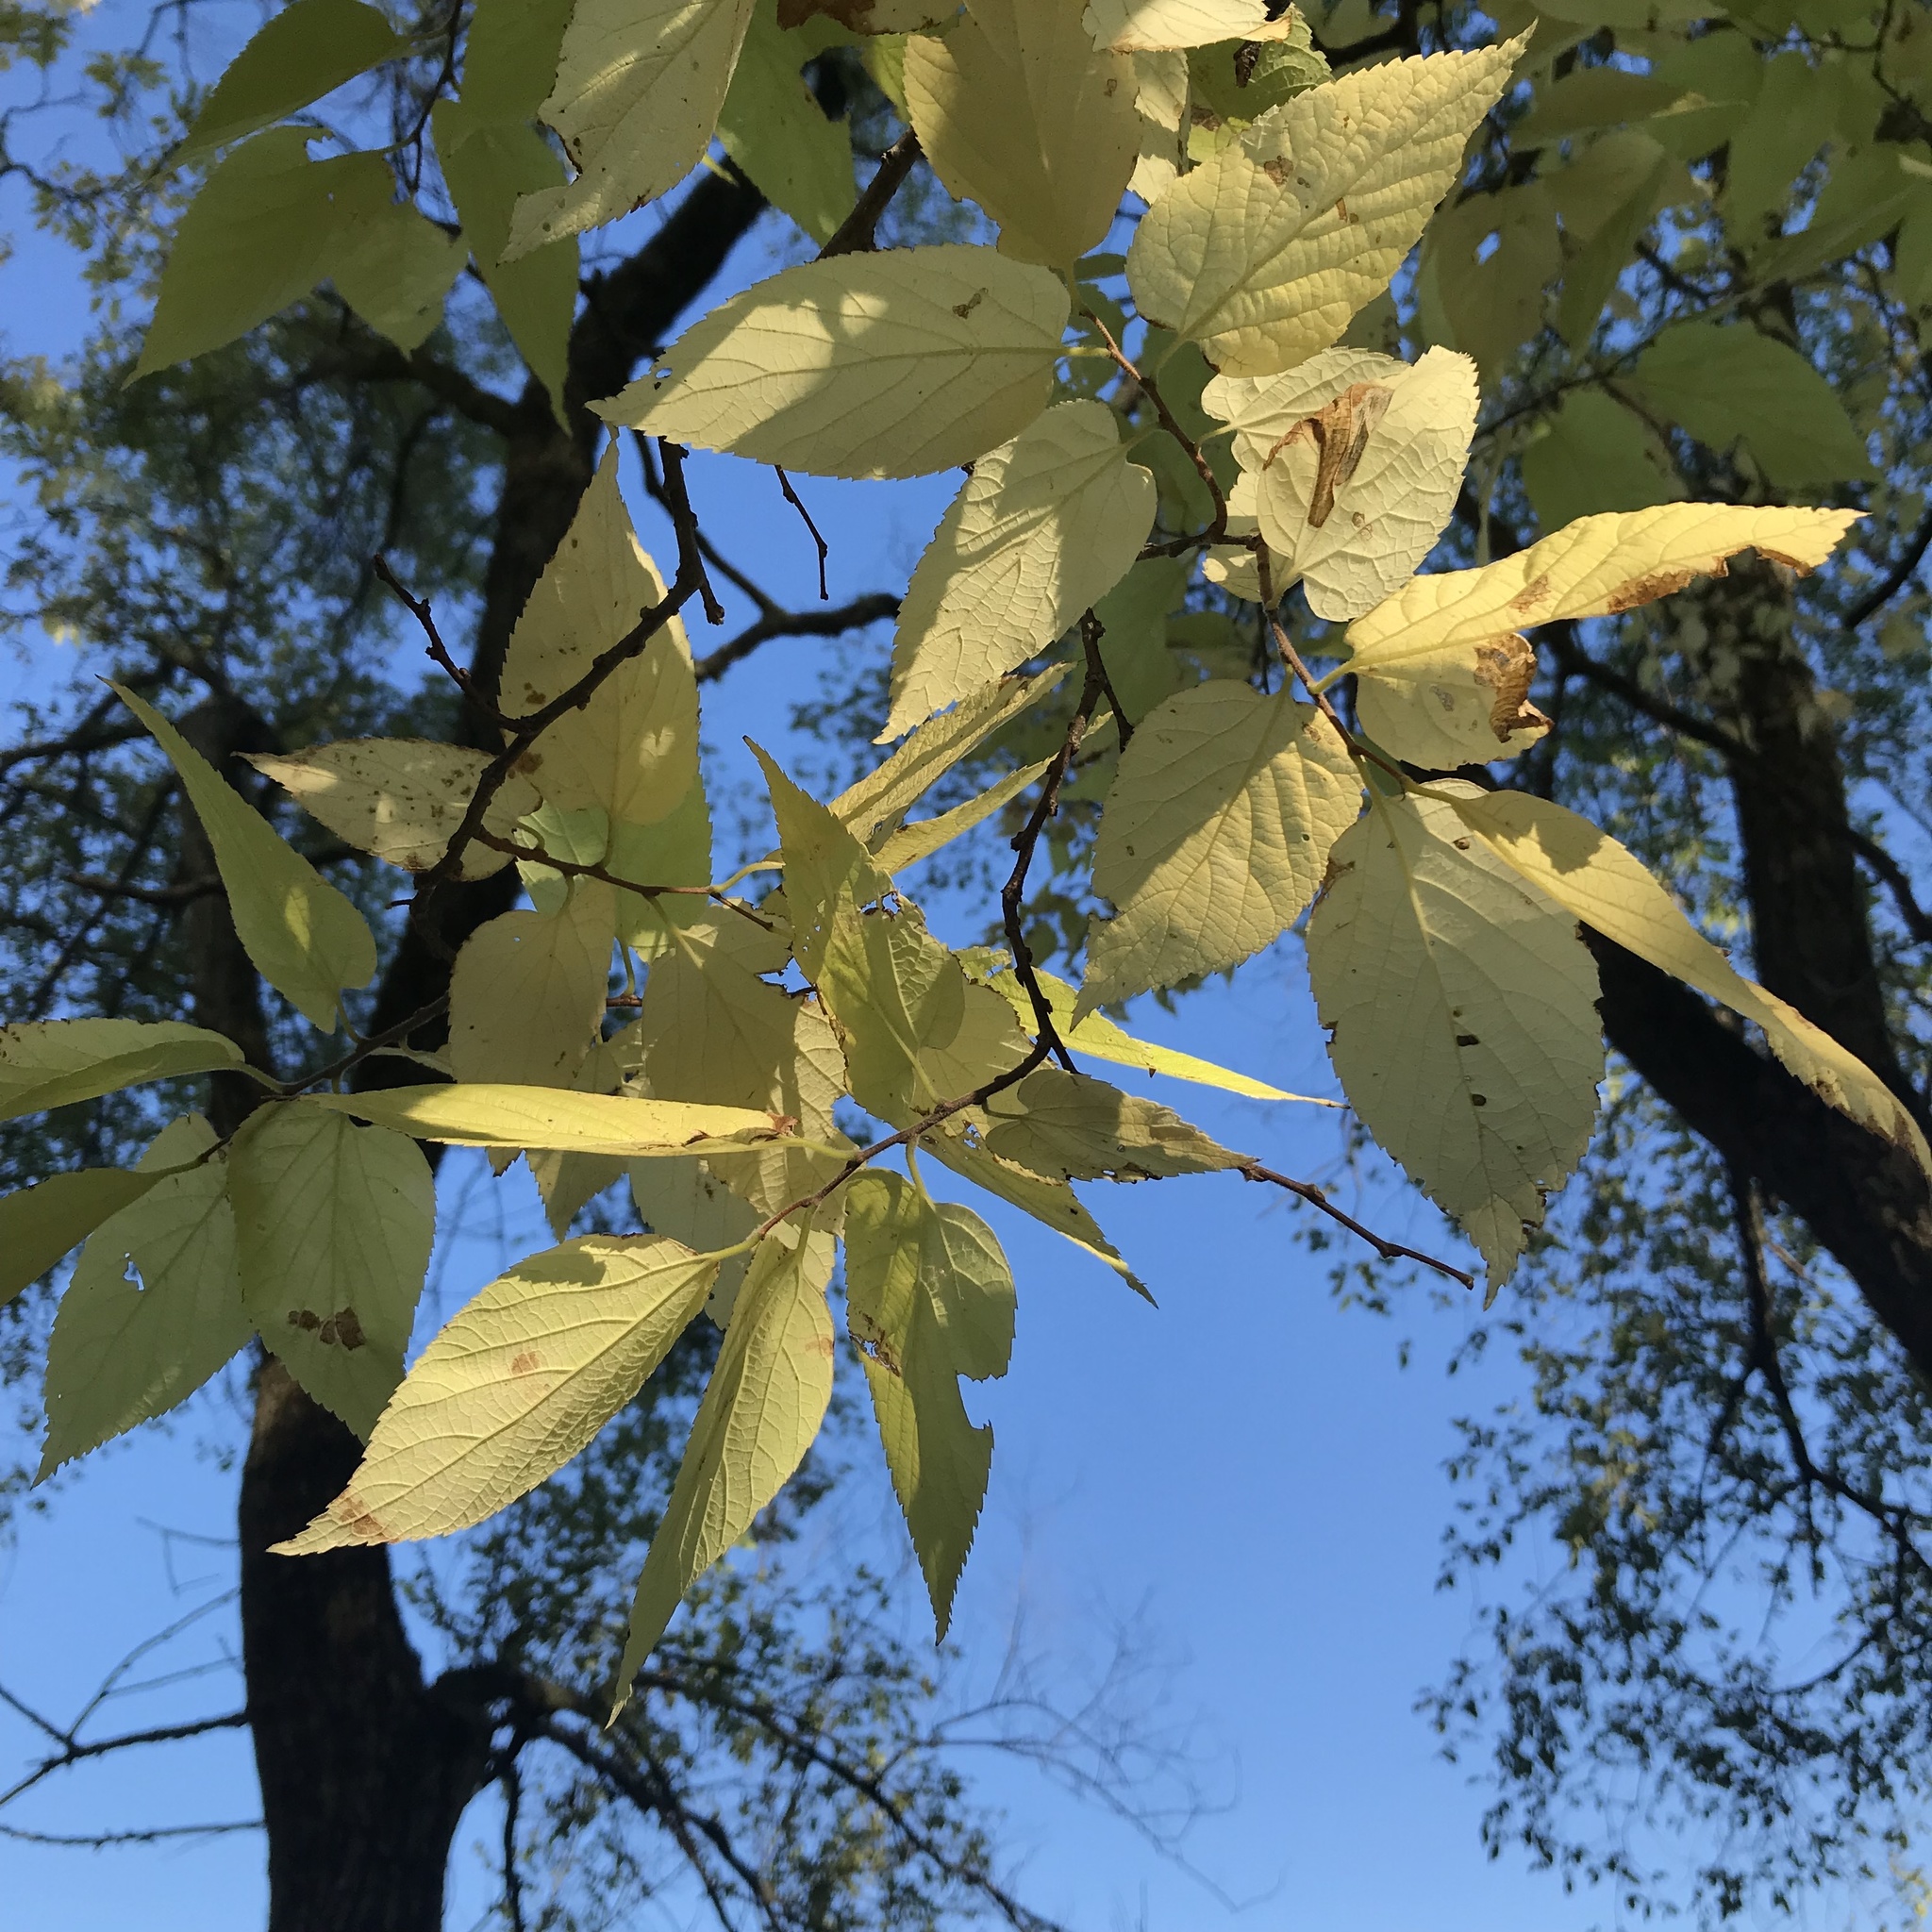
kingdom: Plantae
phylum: Tracheophyta
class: Magnoliopsida
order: Rosales
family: Cannabaceae
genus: Celtis
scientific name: Celtis occidentalis
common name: Common hackberry
